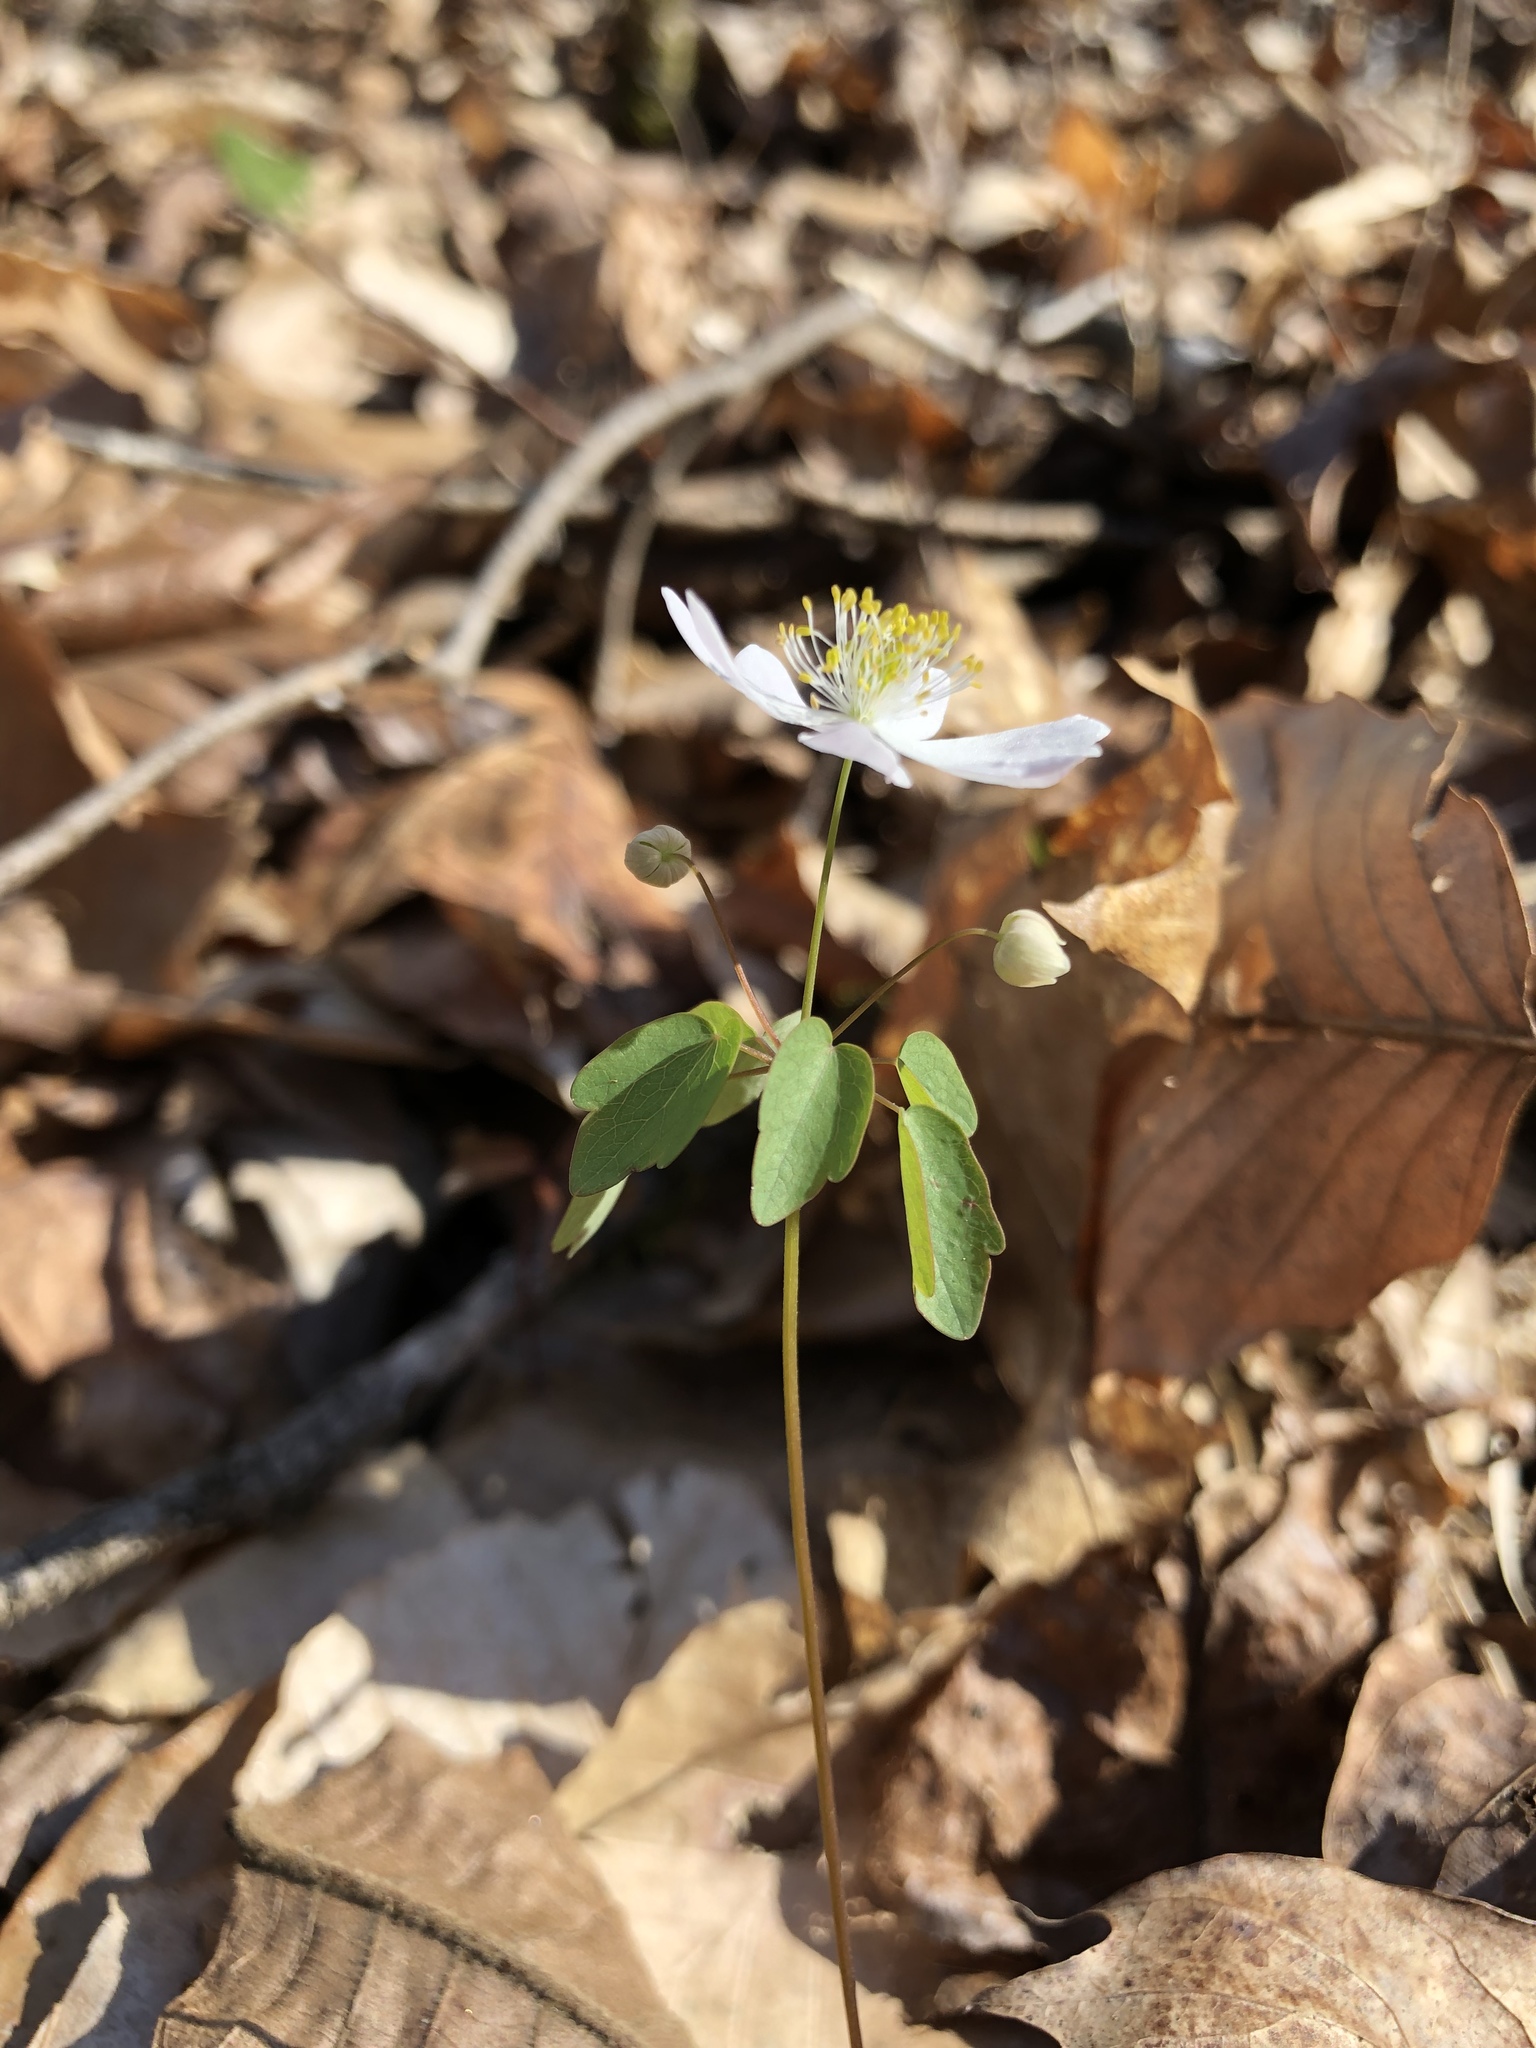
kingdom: Plantae
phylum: Tracheophyta
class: Magnoliopsida
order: Ranunculales
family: Ranunculaceae
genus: Thalictrum
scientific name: Thalictrum thalictroides
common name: Rue-anemone
